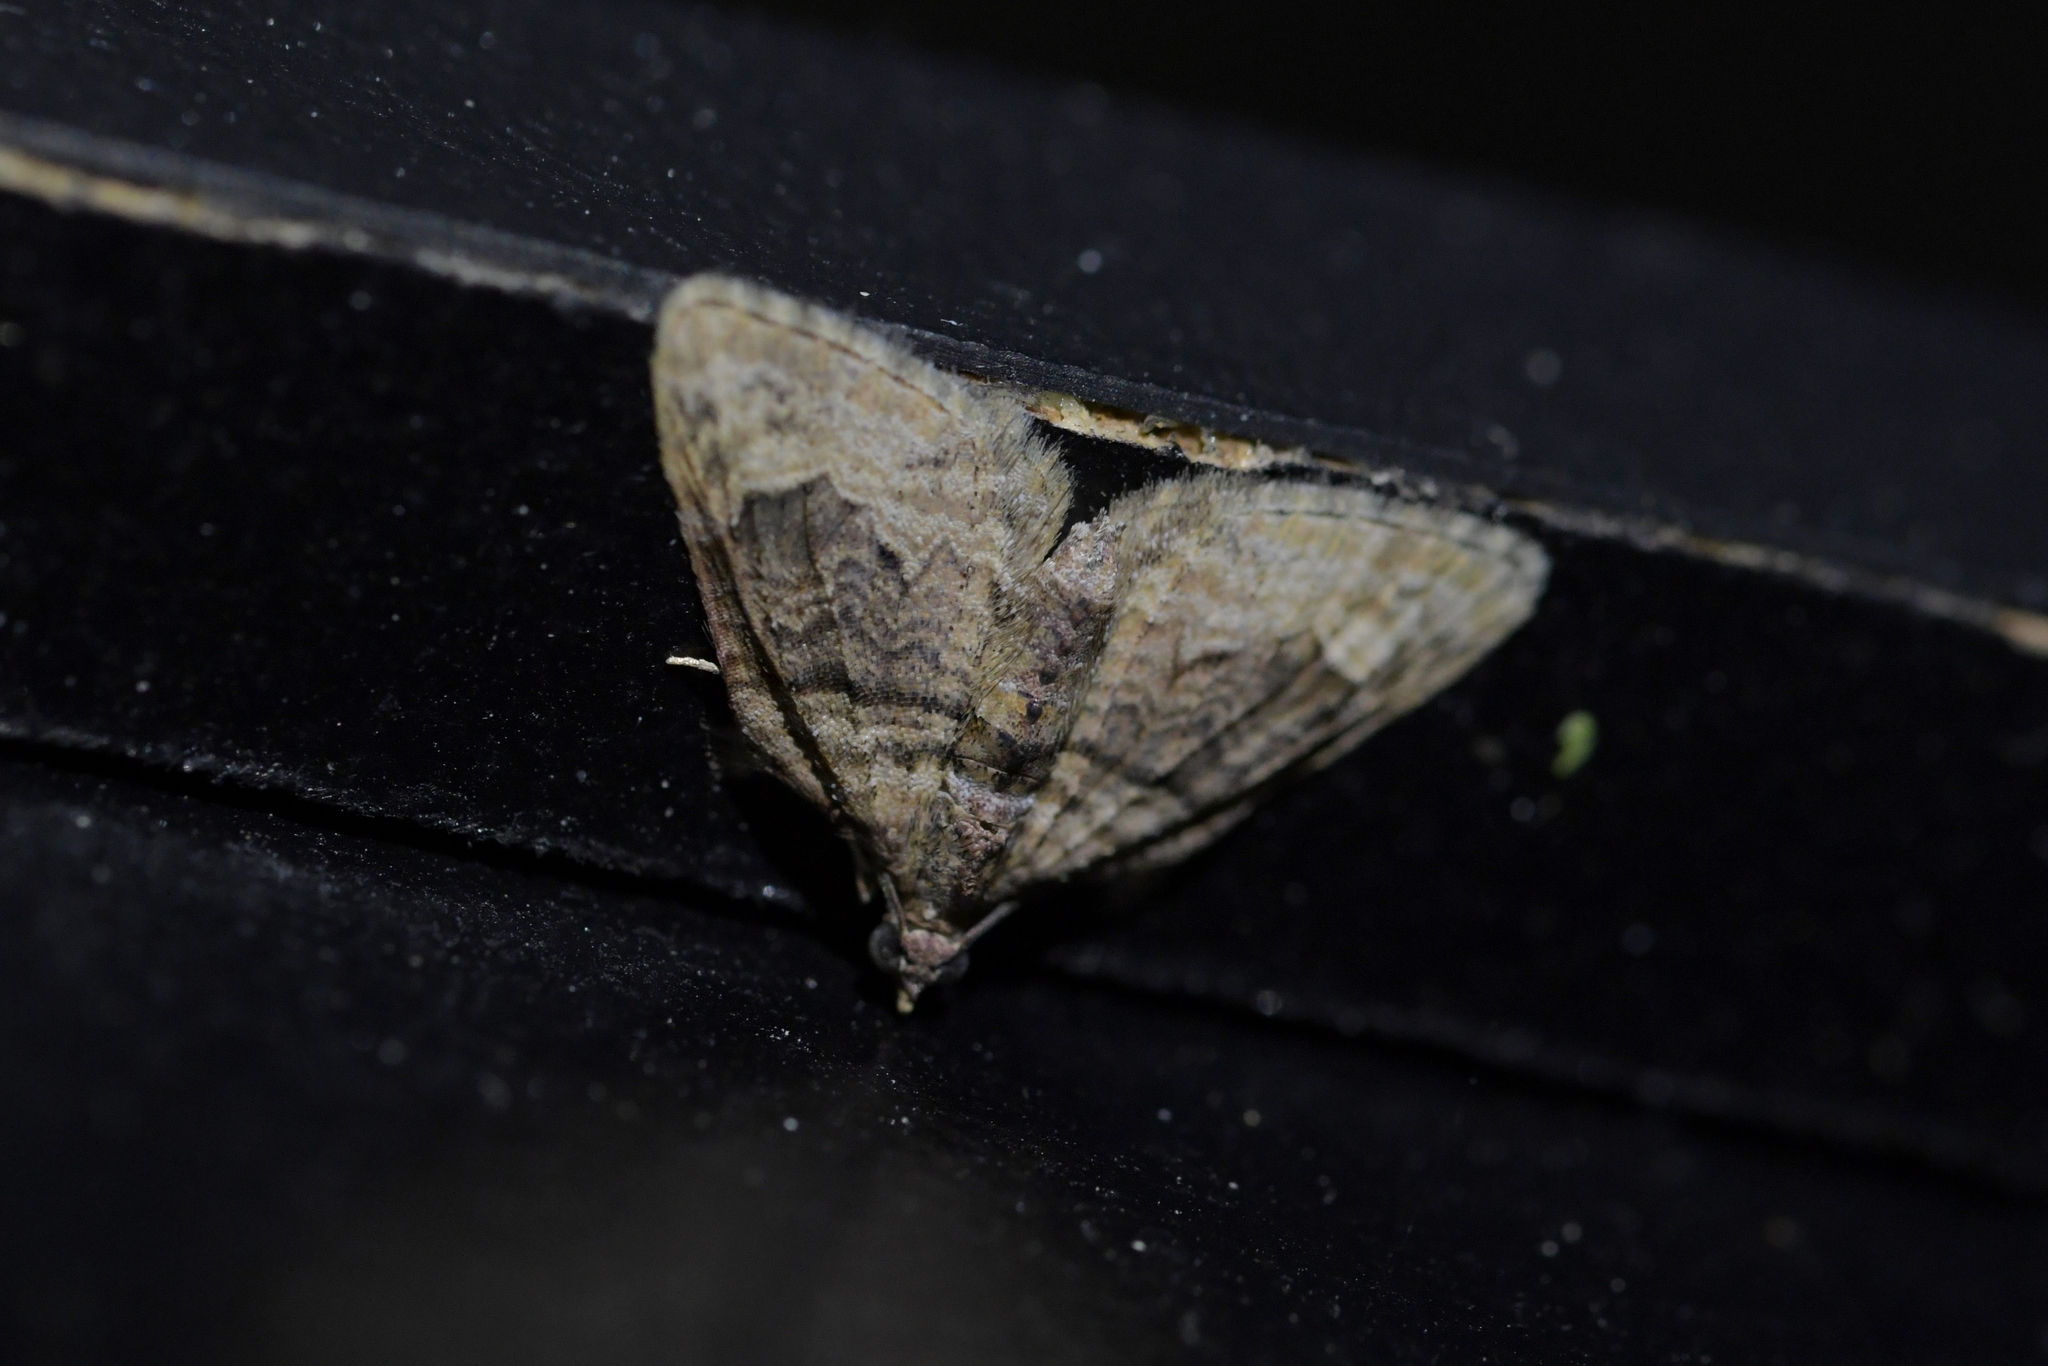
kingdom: Animalia
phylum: Arthropoda
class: Insecta
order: Lepidoptera
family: Geometridae
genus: Phrissogonus
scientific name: Phrissogonus laticostata
